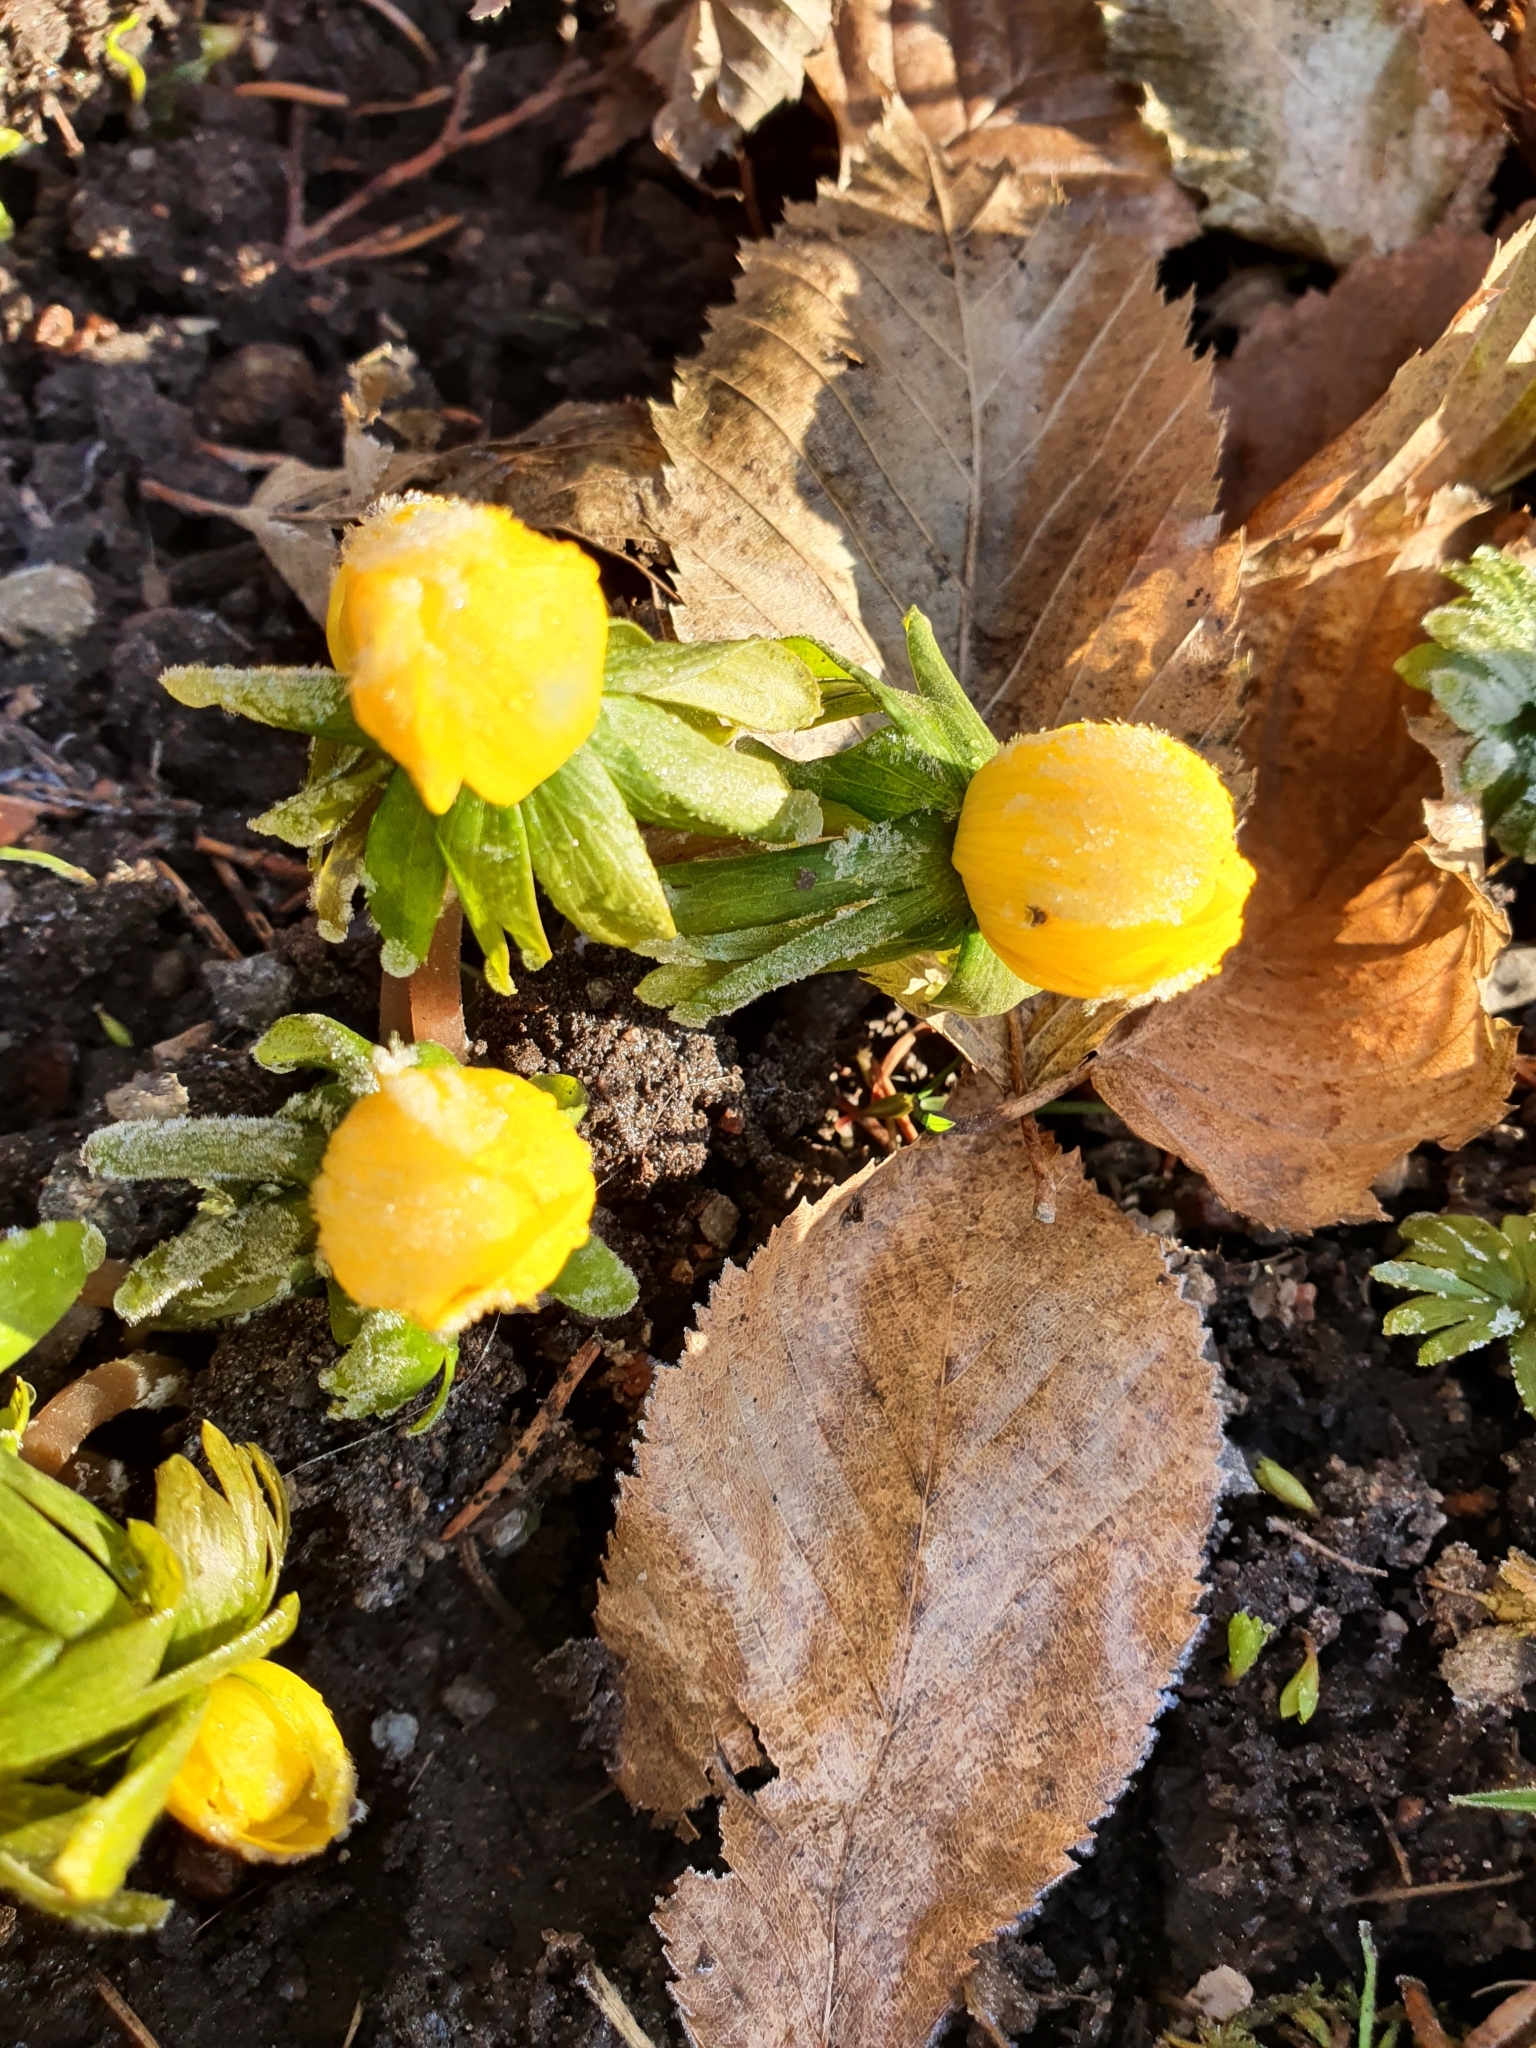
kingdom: Plantae
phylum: Tracheophyta
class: Magnoliopsida
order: Ranunculales
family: Ranunculaceae
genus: Eranthis
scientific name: Eranthis hyemalis
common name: Winter aconite
